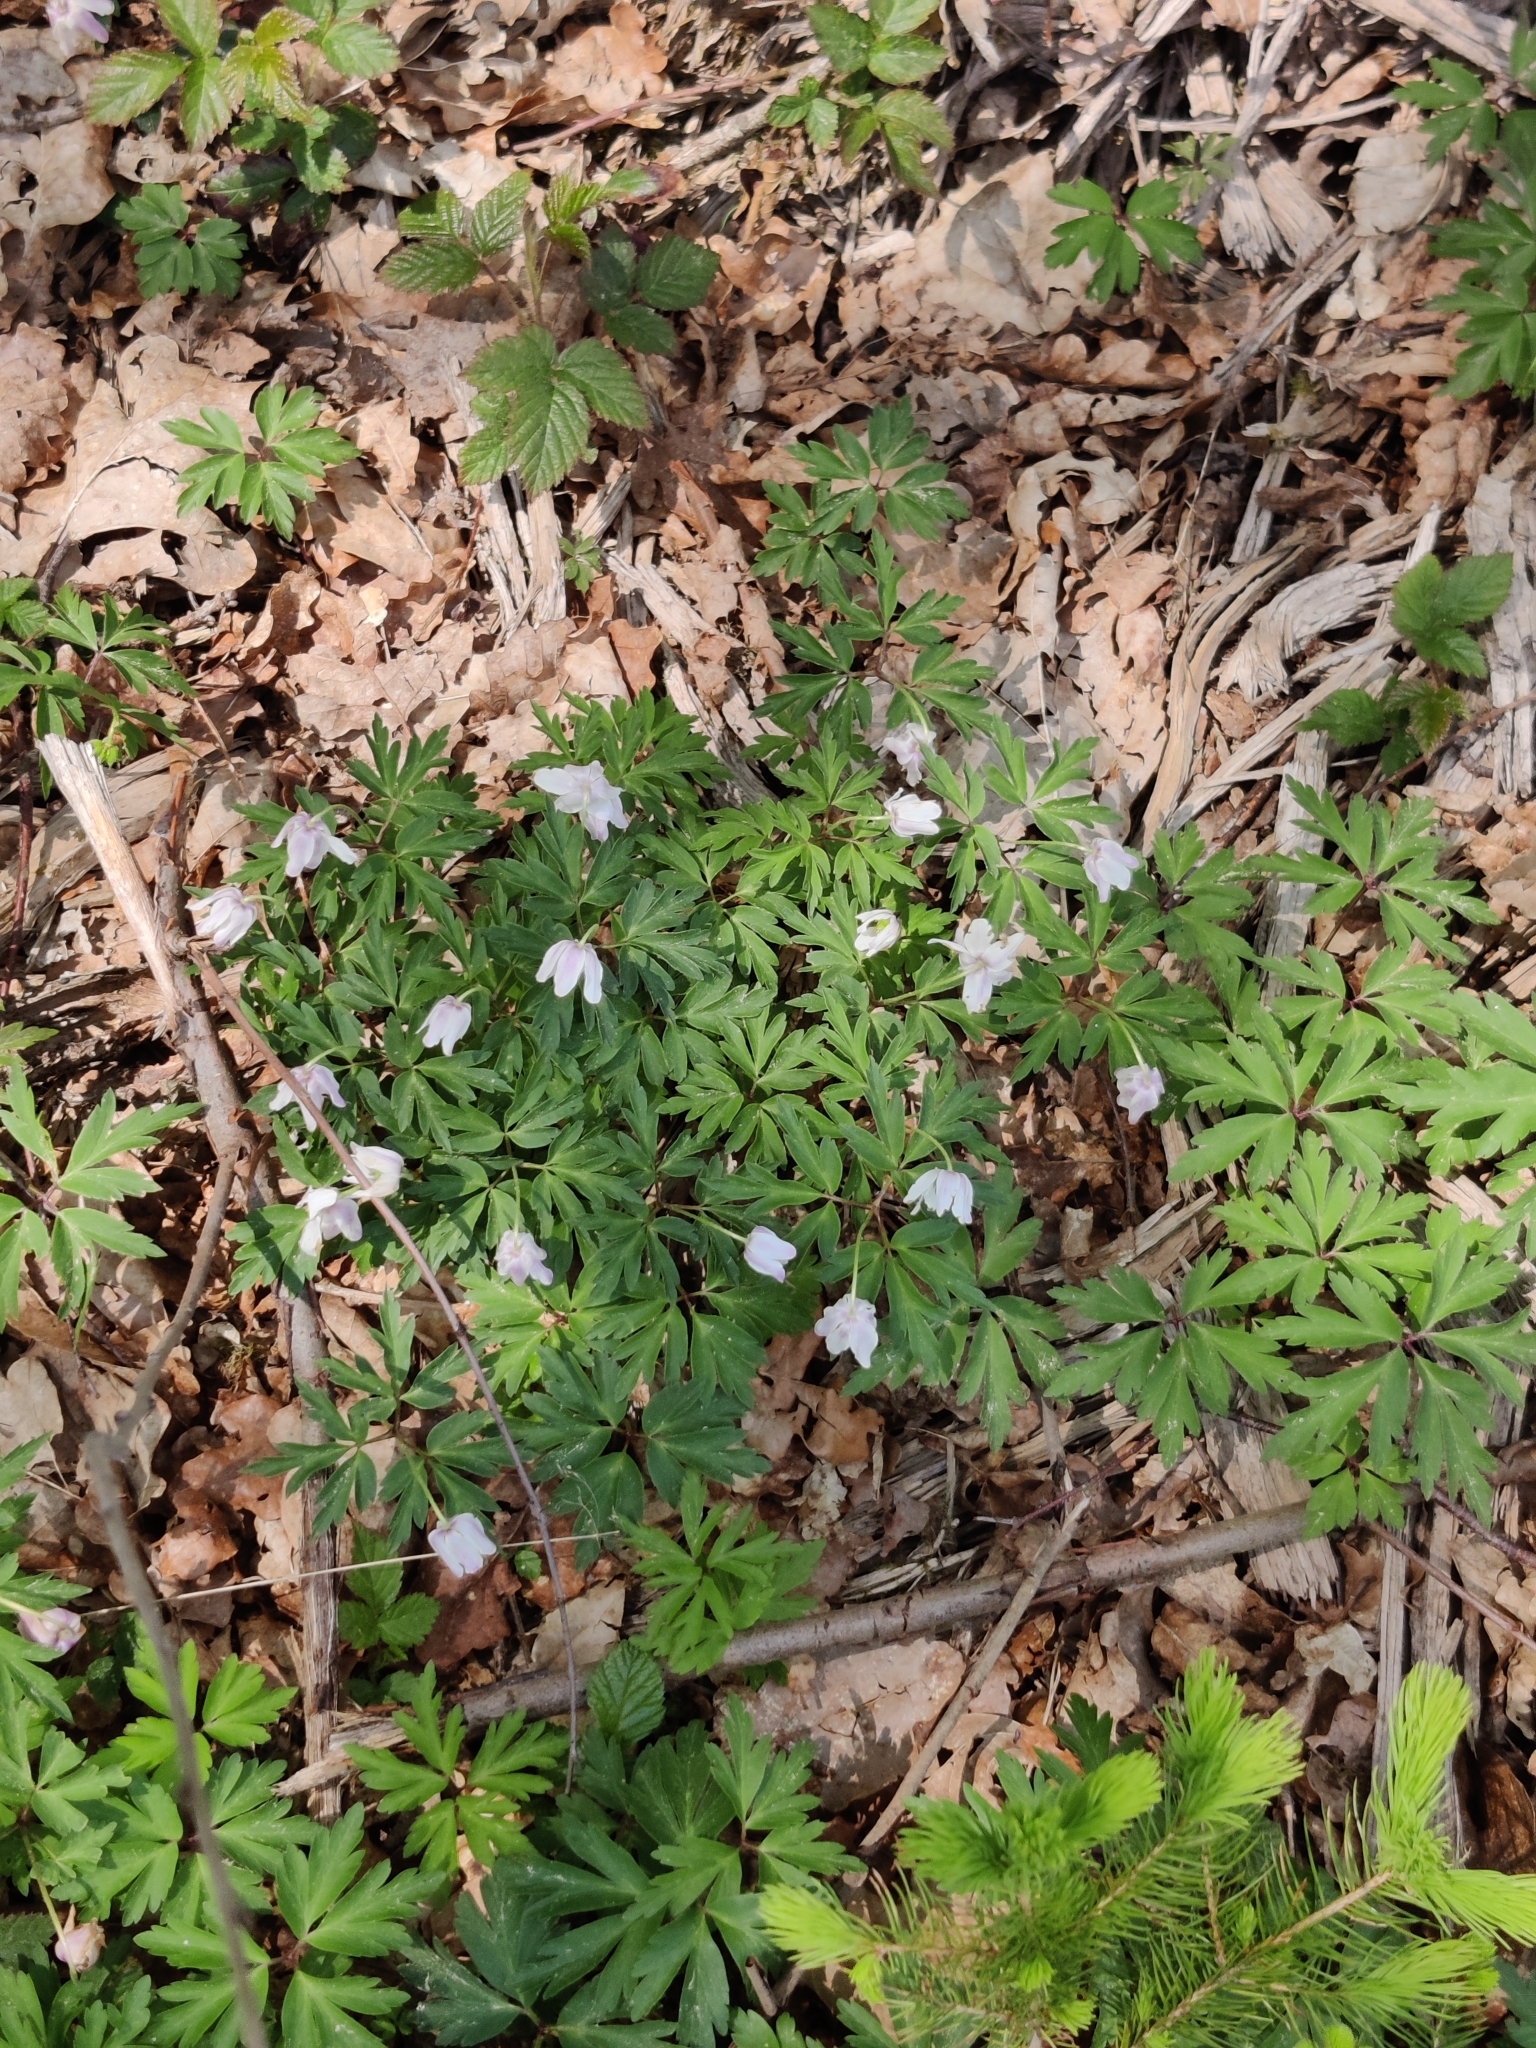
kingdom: Plantae
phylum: Tracheophyta
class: Magnoliopsida
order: Ranunculales
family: Ranunculaceae
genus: Anemone
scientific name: Anemone nemorosa
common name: Wood anemone
